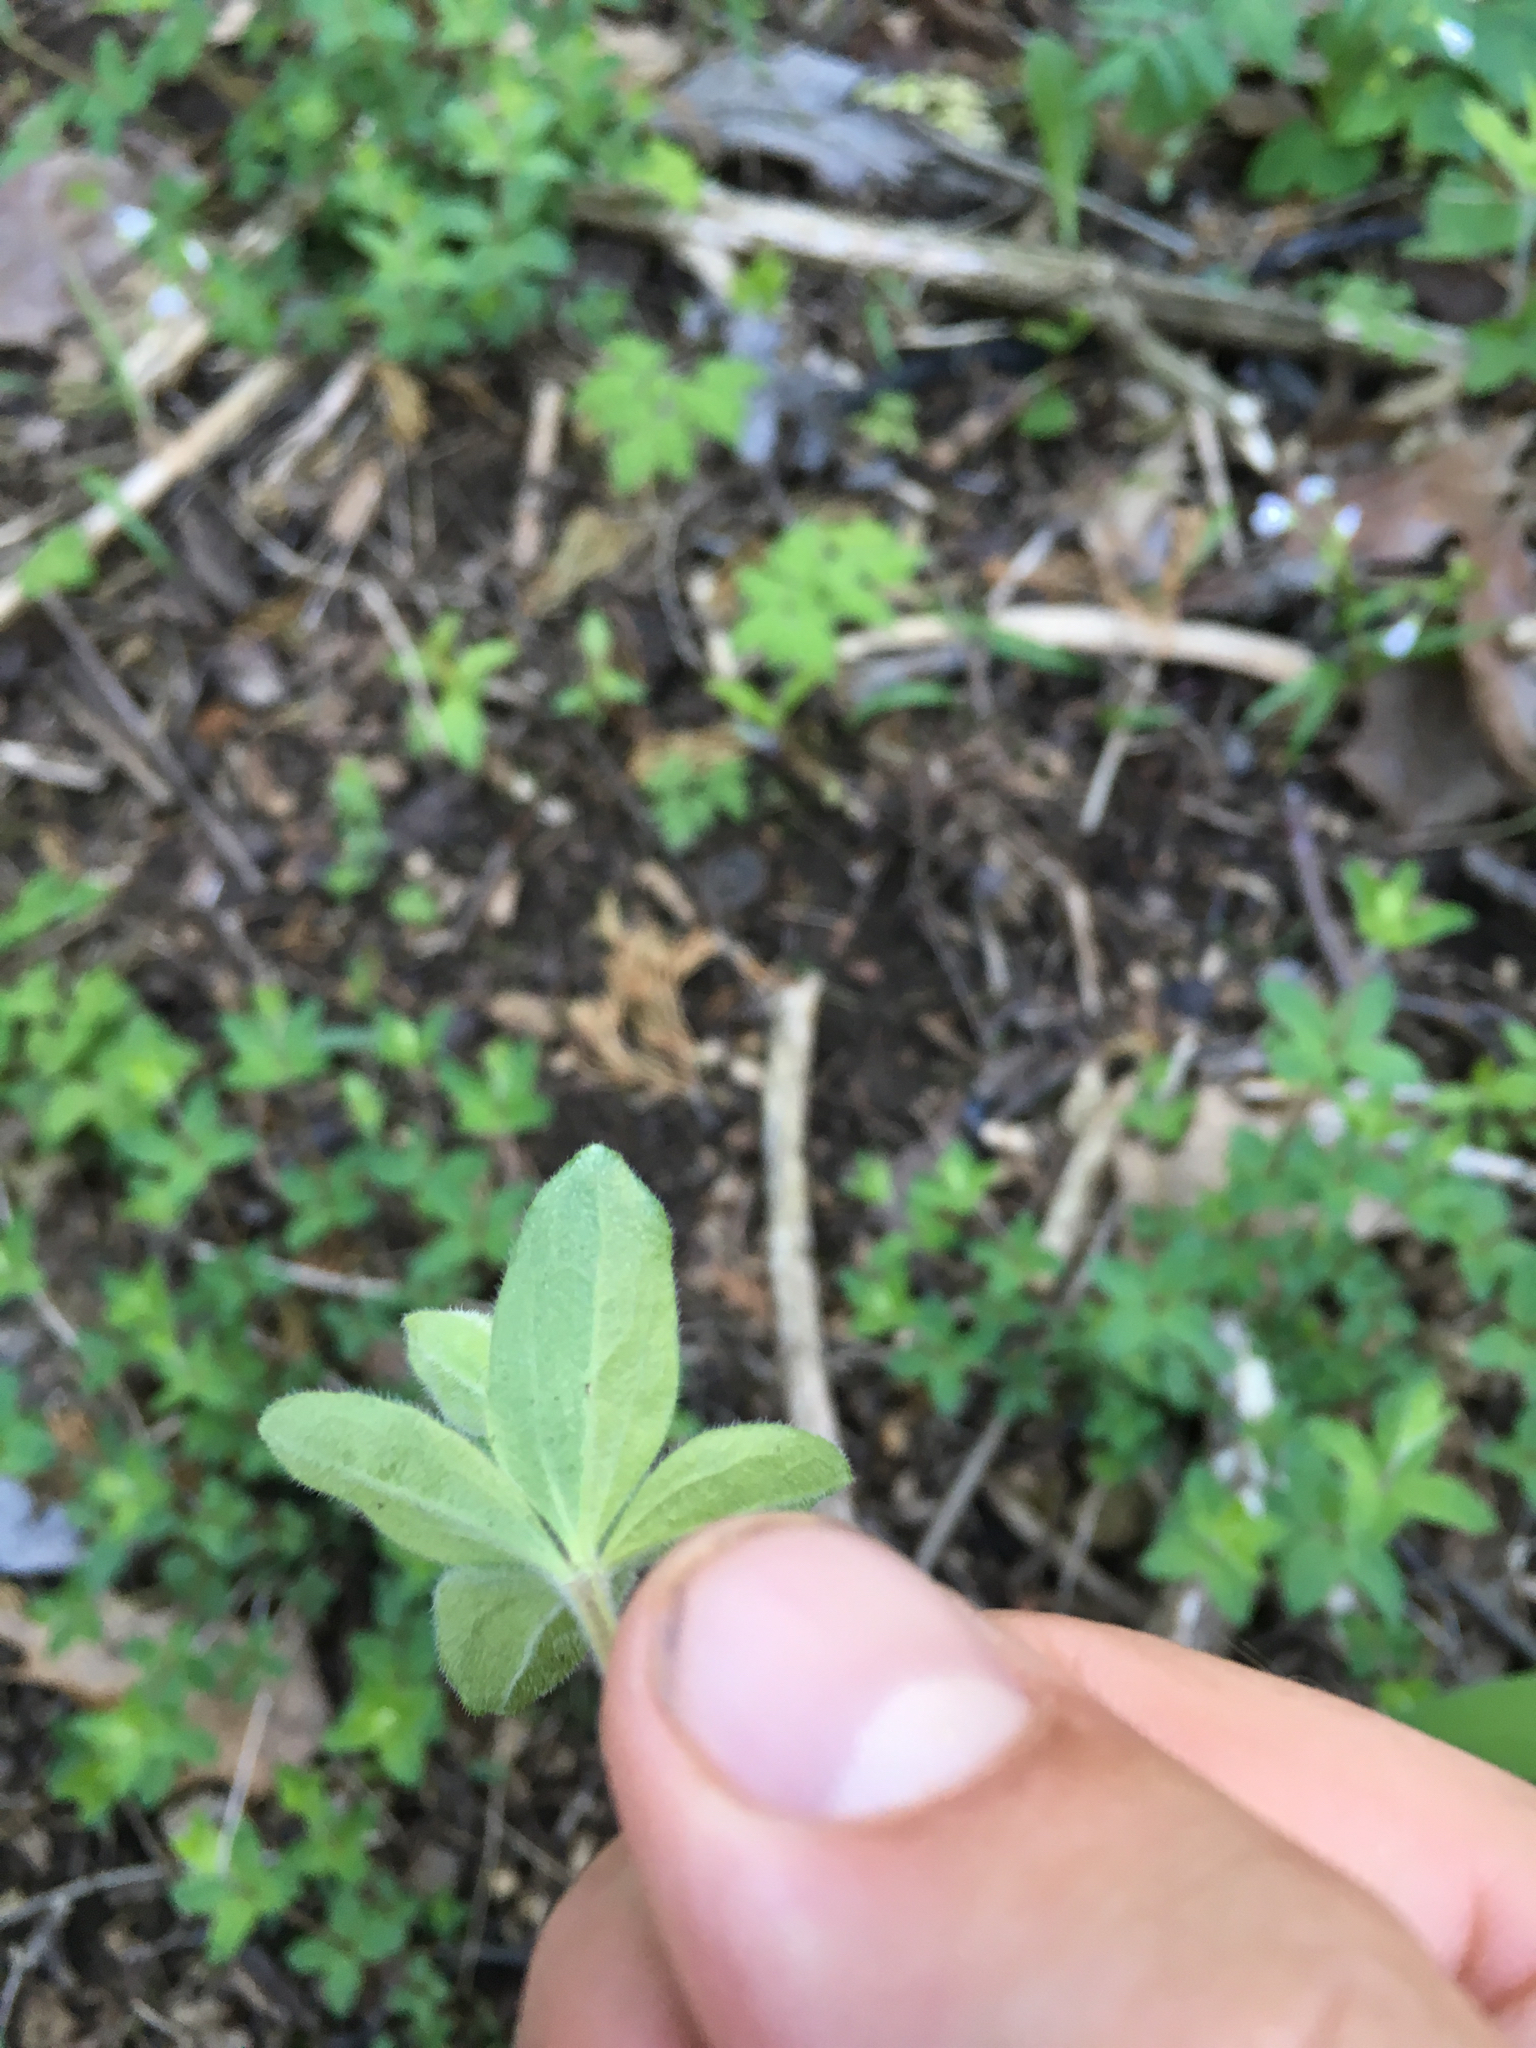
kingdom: Plantae
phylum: Tracheophyta
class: Magnoliopsida
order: Gentianales
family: Rubiaceae
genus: Galium
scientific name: Galium circaezans
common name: Forest bedstraw
